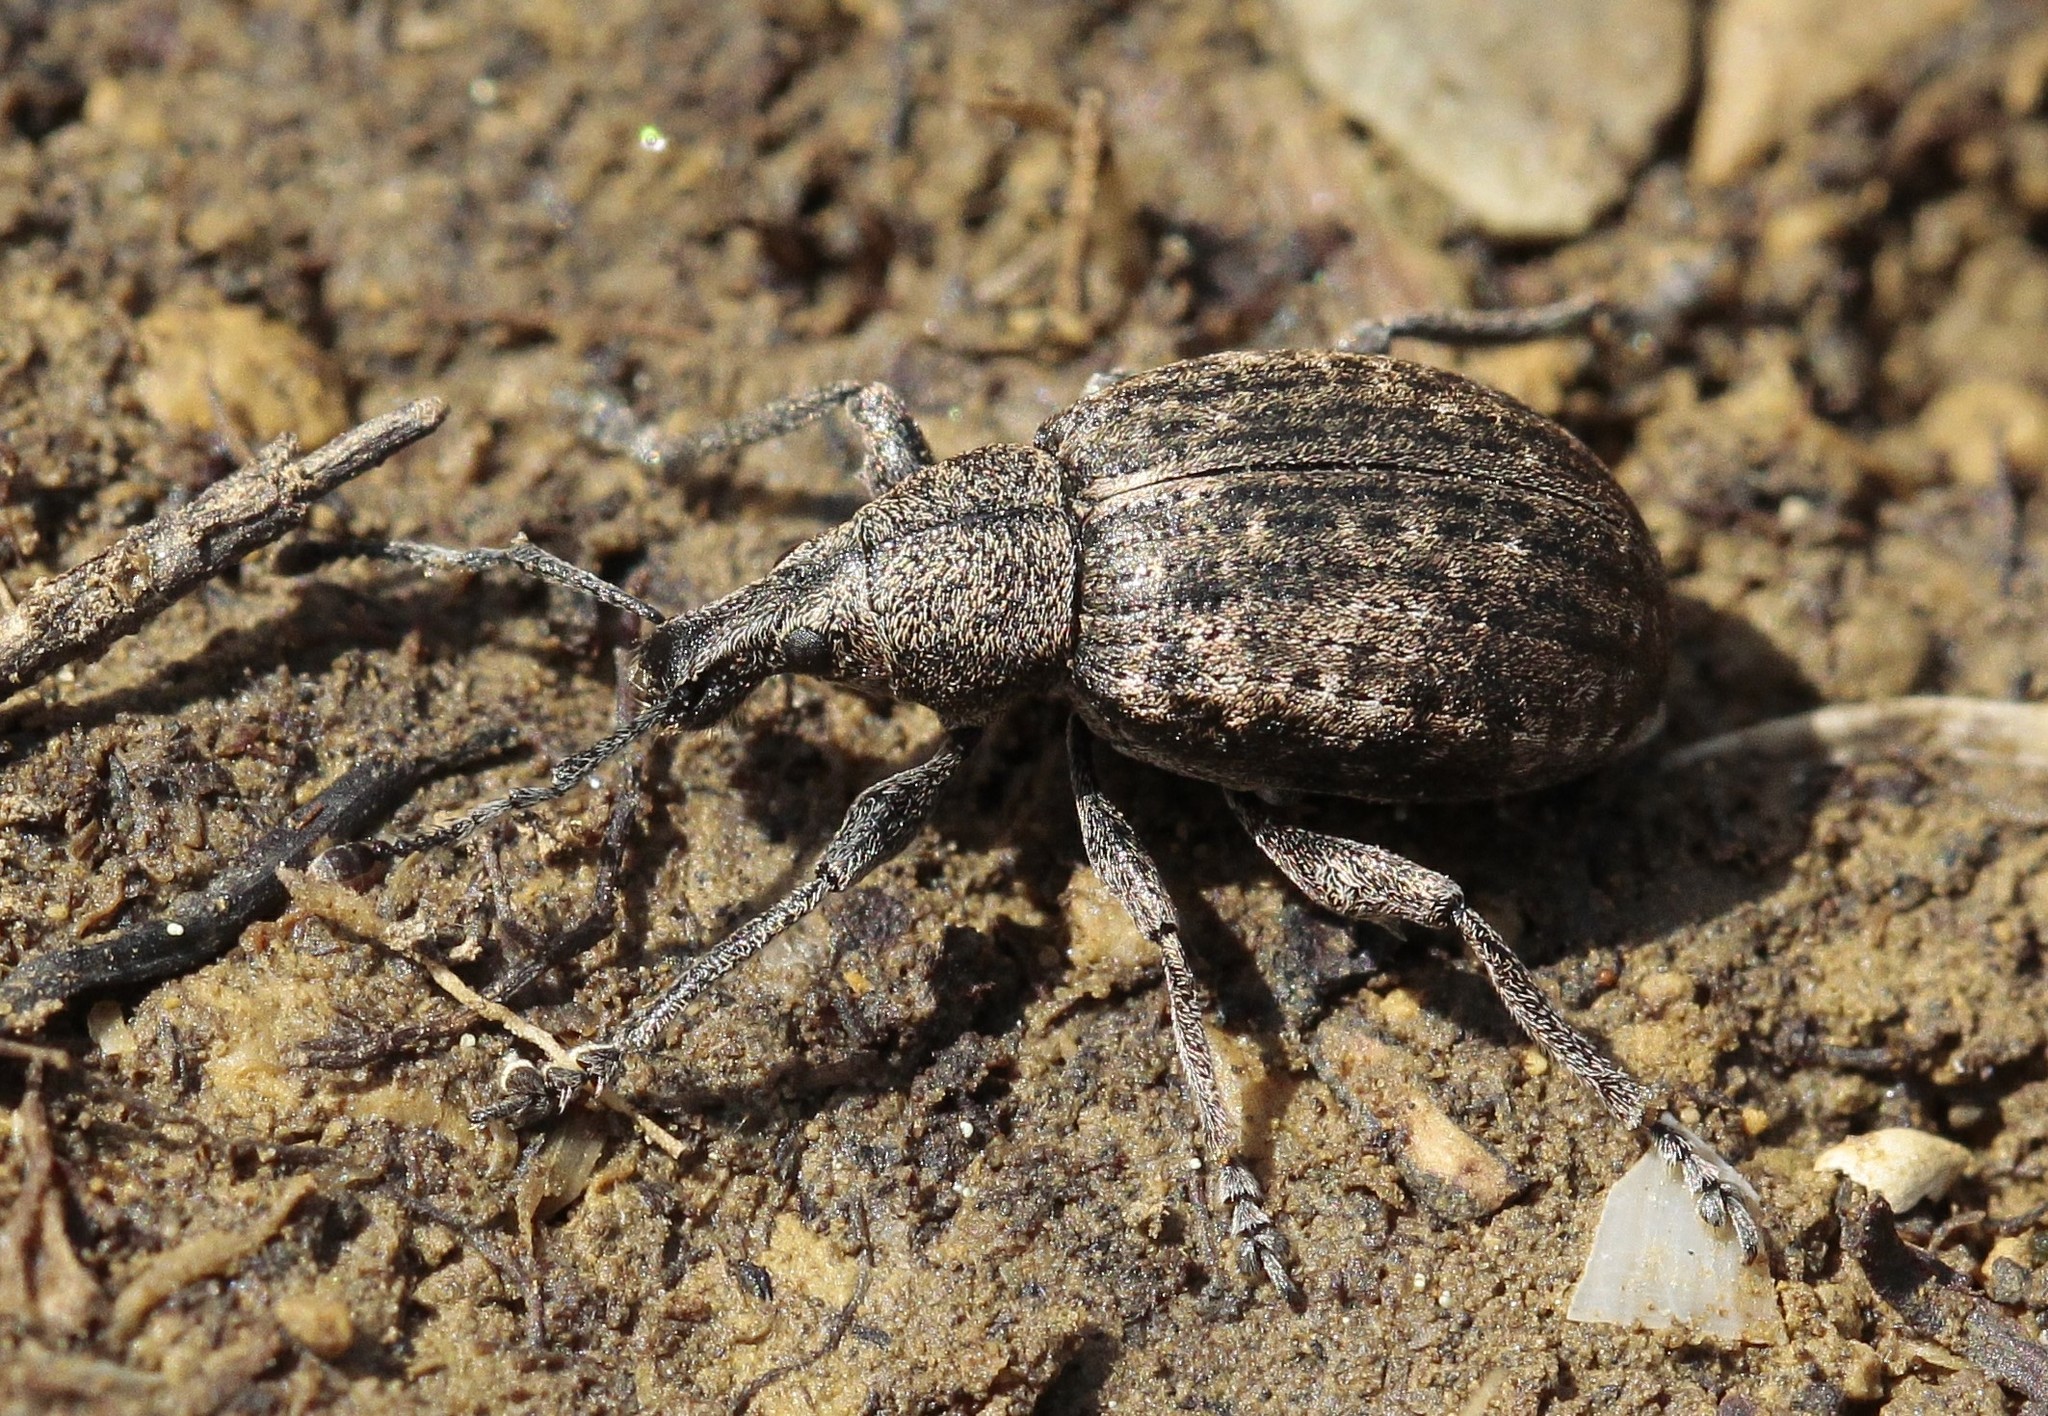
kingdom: Animalia
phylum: Arthropoda
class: Insecta
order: Coleoptera
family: Curculionidae
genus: Nastus
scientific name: Nastus fausti
